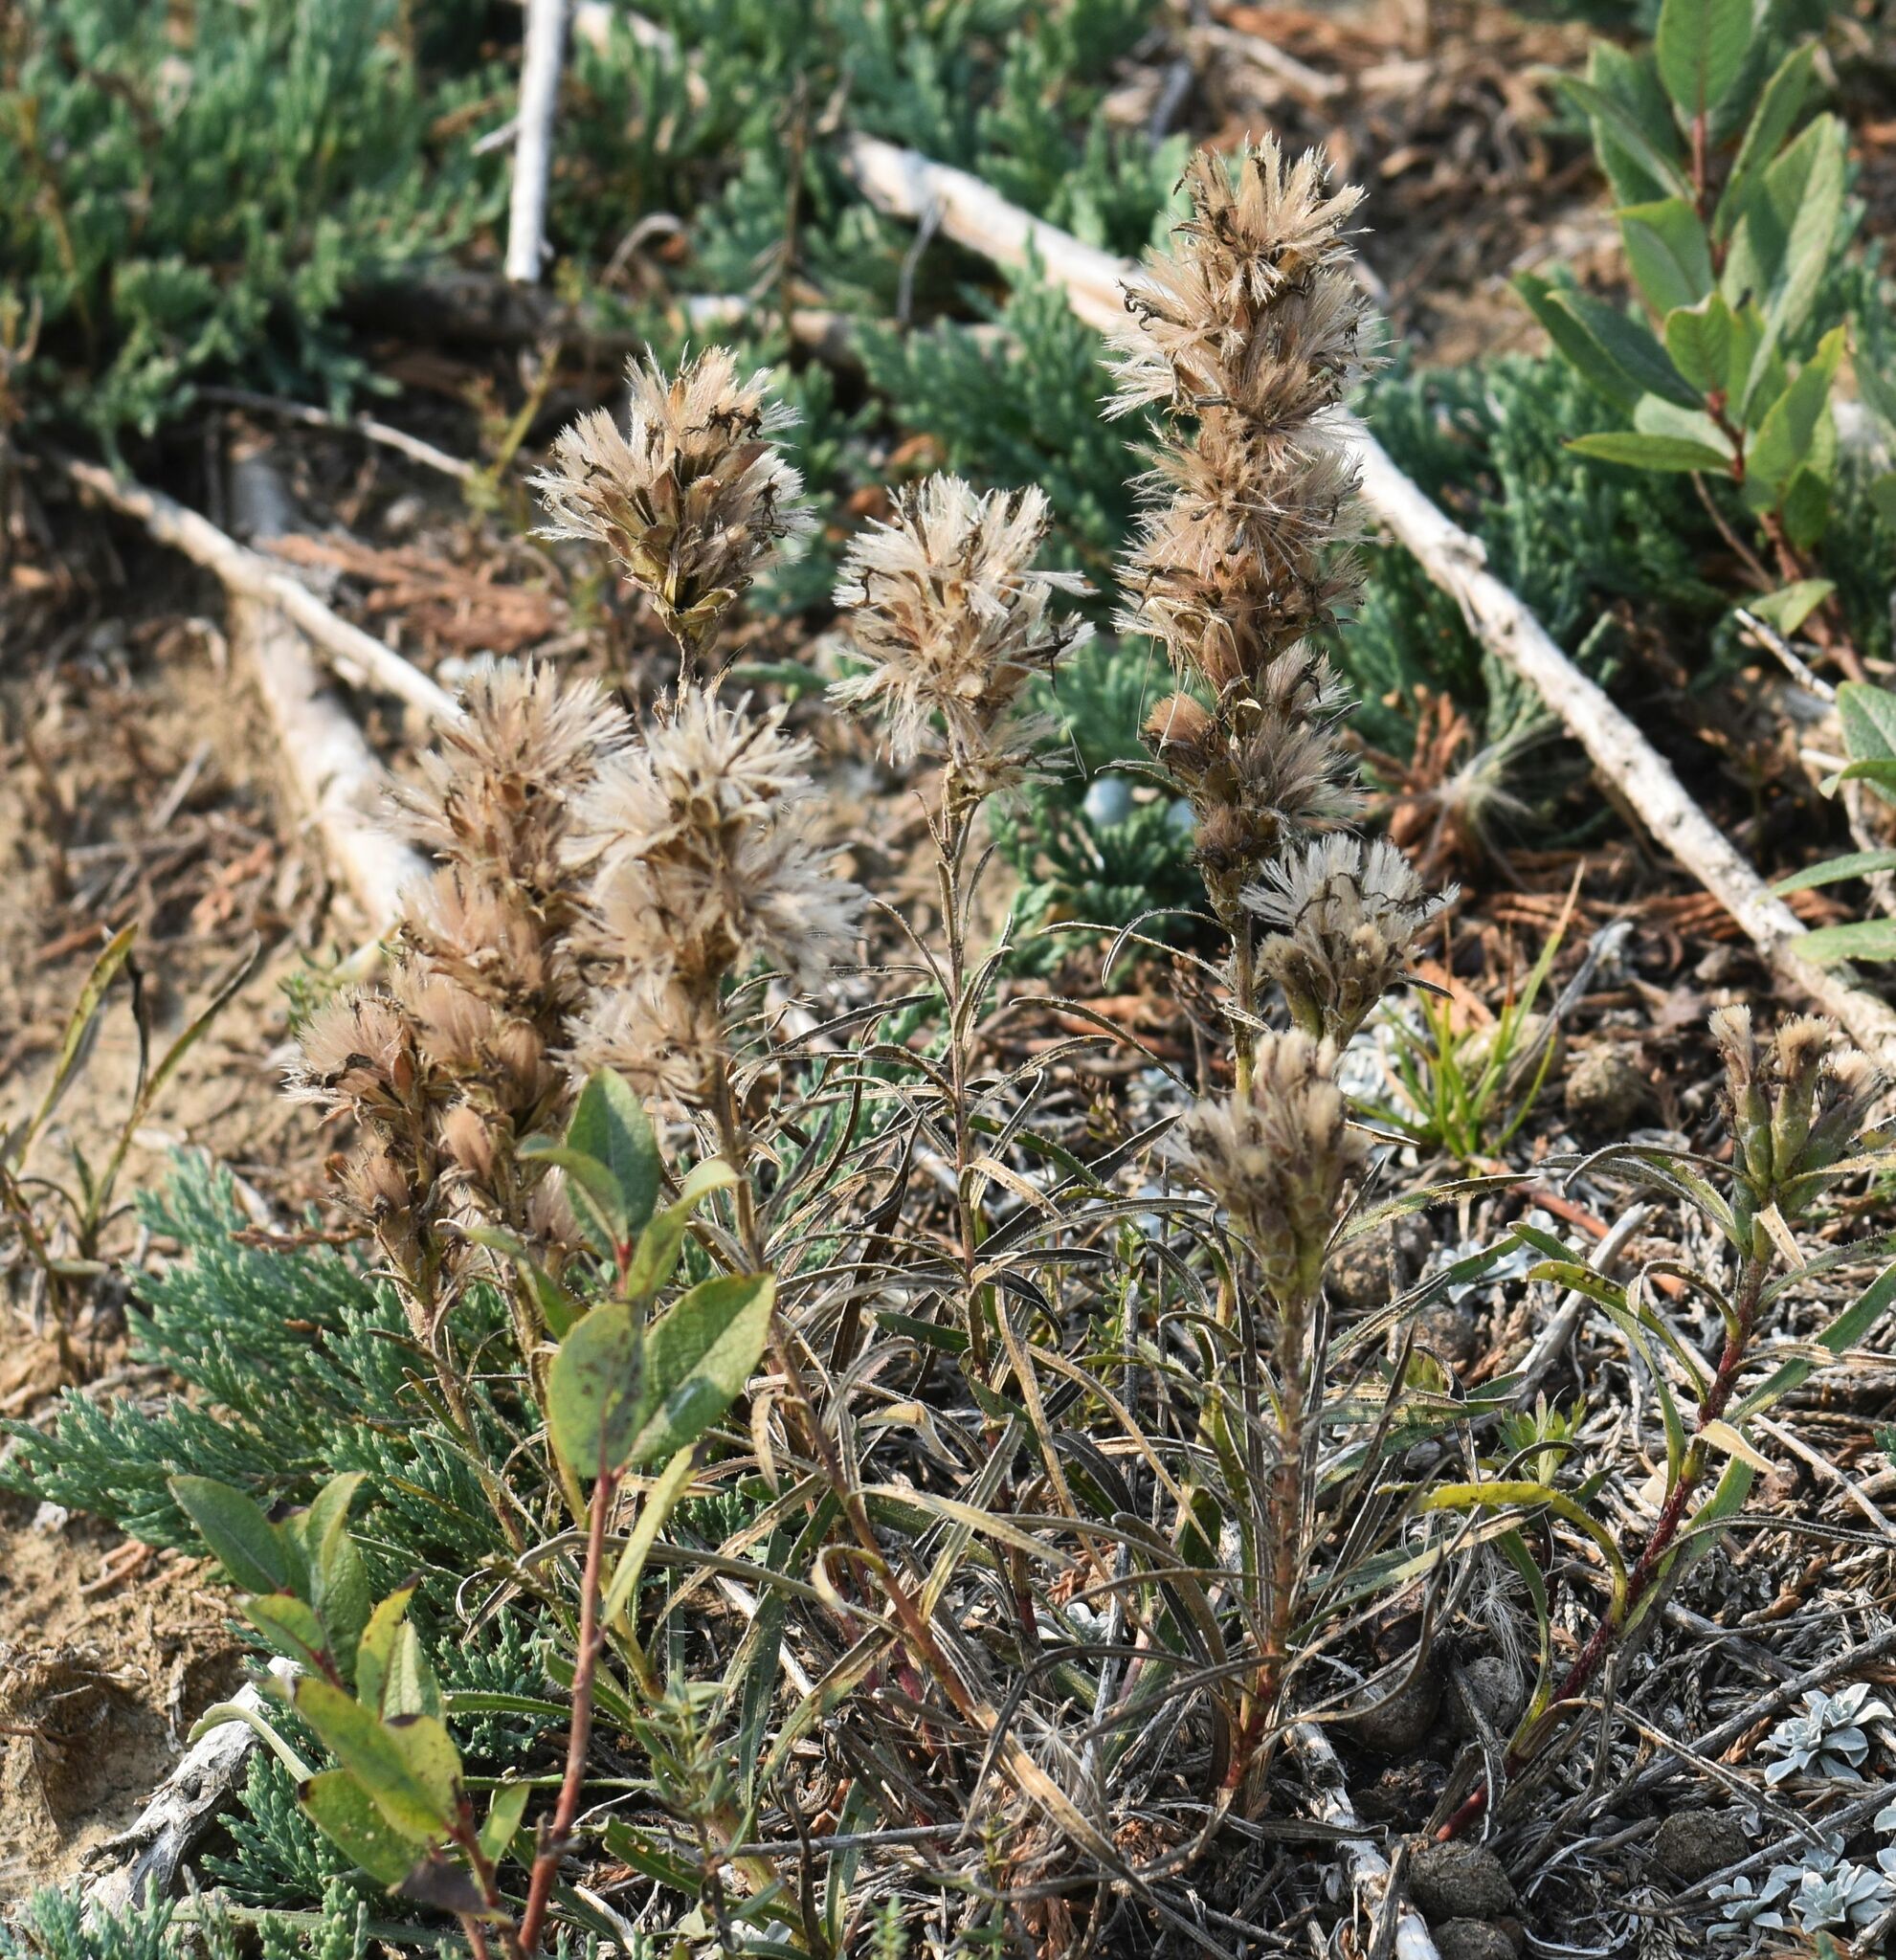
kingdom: Plantae
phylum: Tracheophyta
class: Magnoliopsida
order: Asterales
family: Asteraceae
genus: Liatris
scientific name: Liatris punctata
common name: Dotted gayfeather
